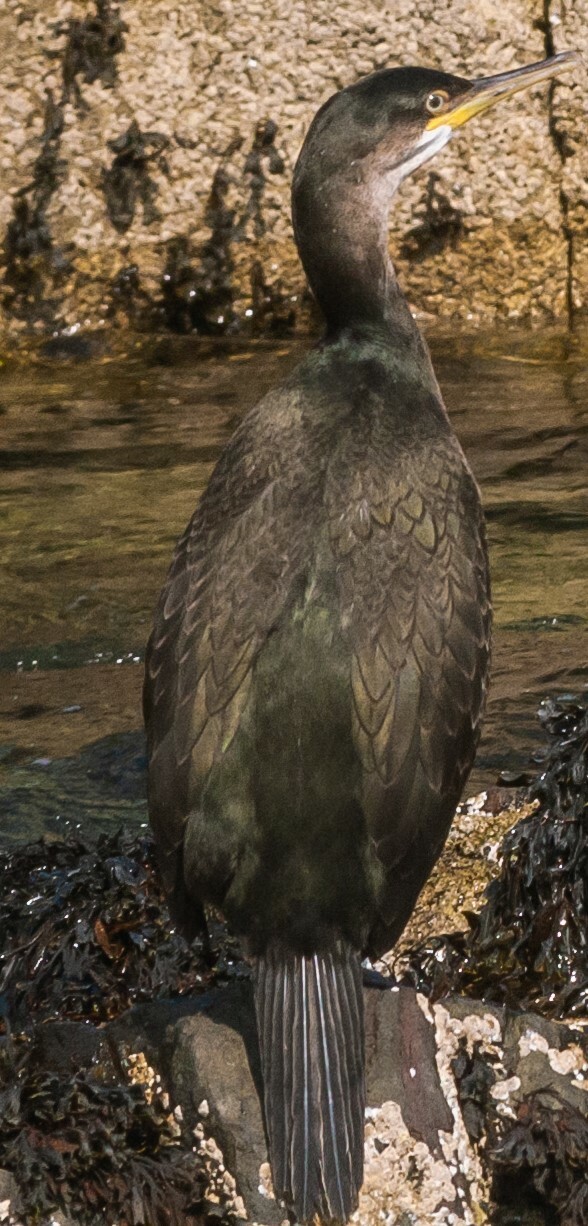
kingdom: Animalia
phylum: Chordata
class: Aves
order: Suliformes
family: Phalacrocoracidae
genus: Phalacrocorax
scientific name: Phalacrocorax aristotelis
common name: European shag
